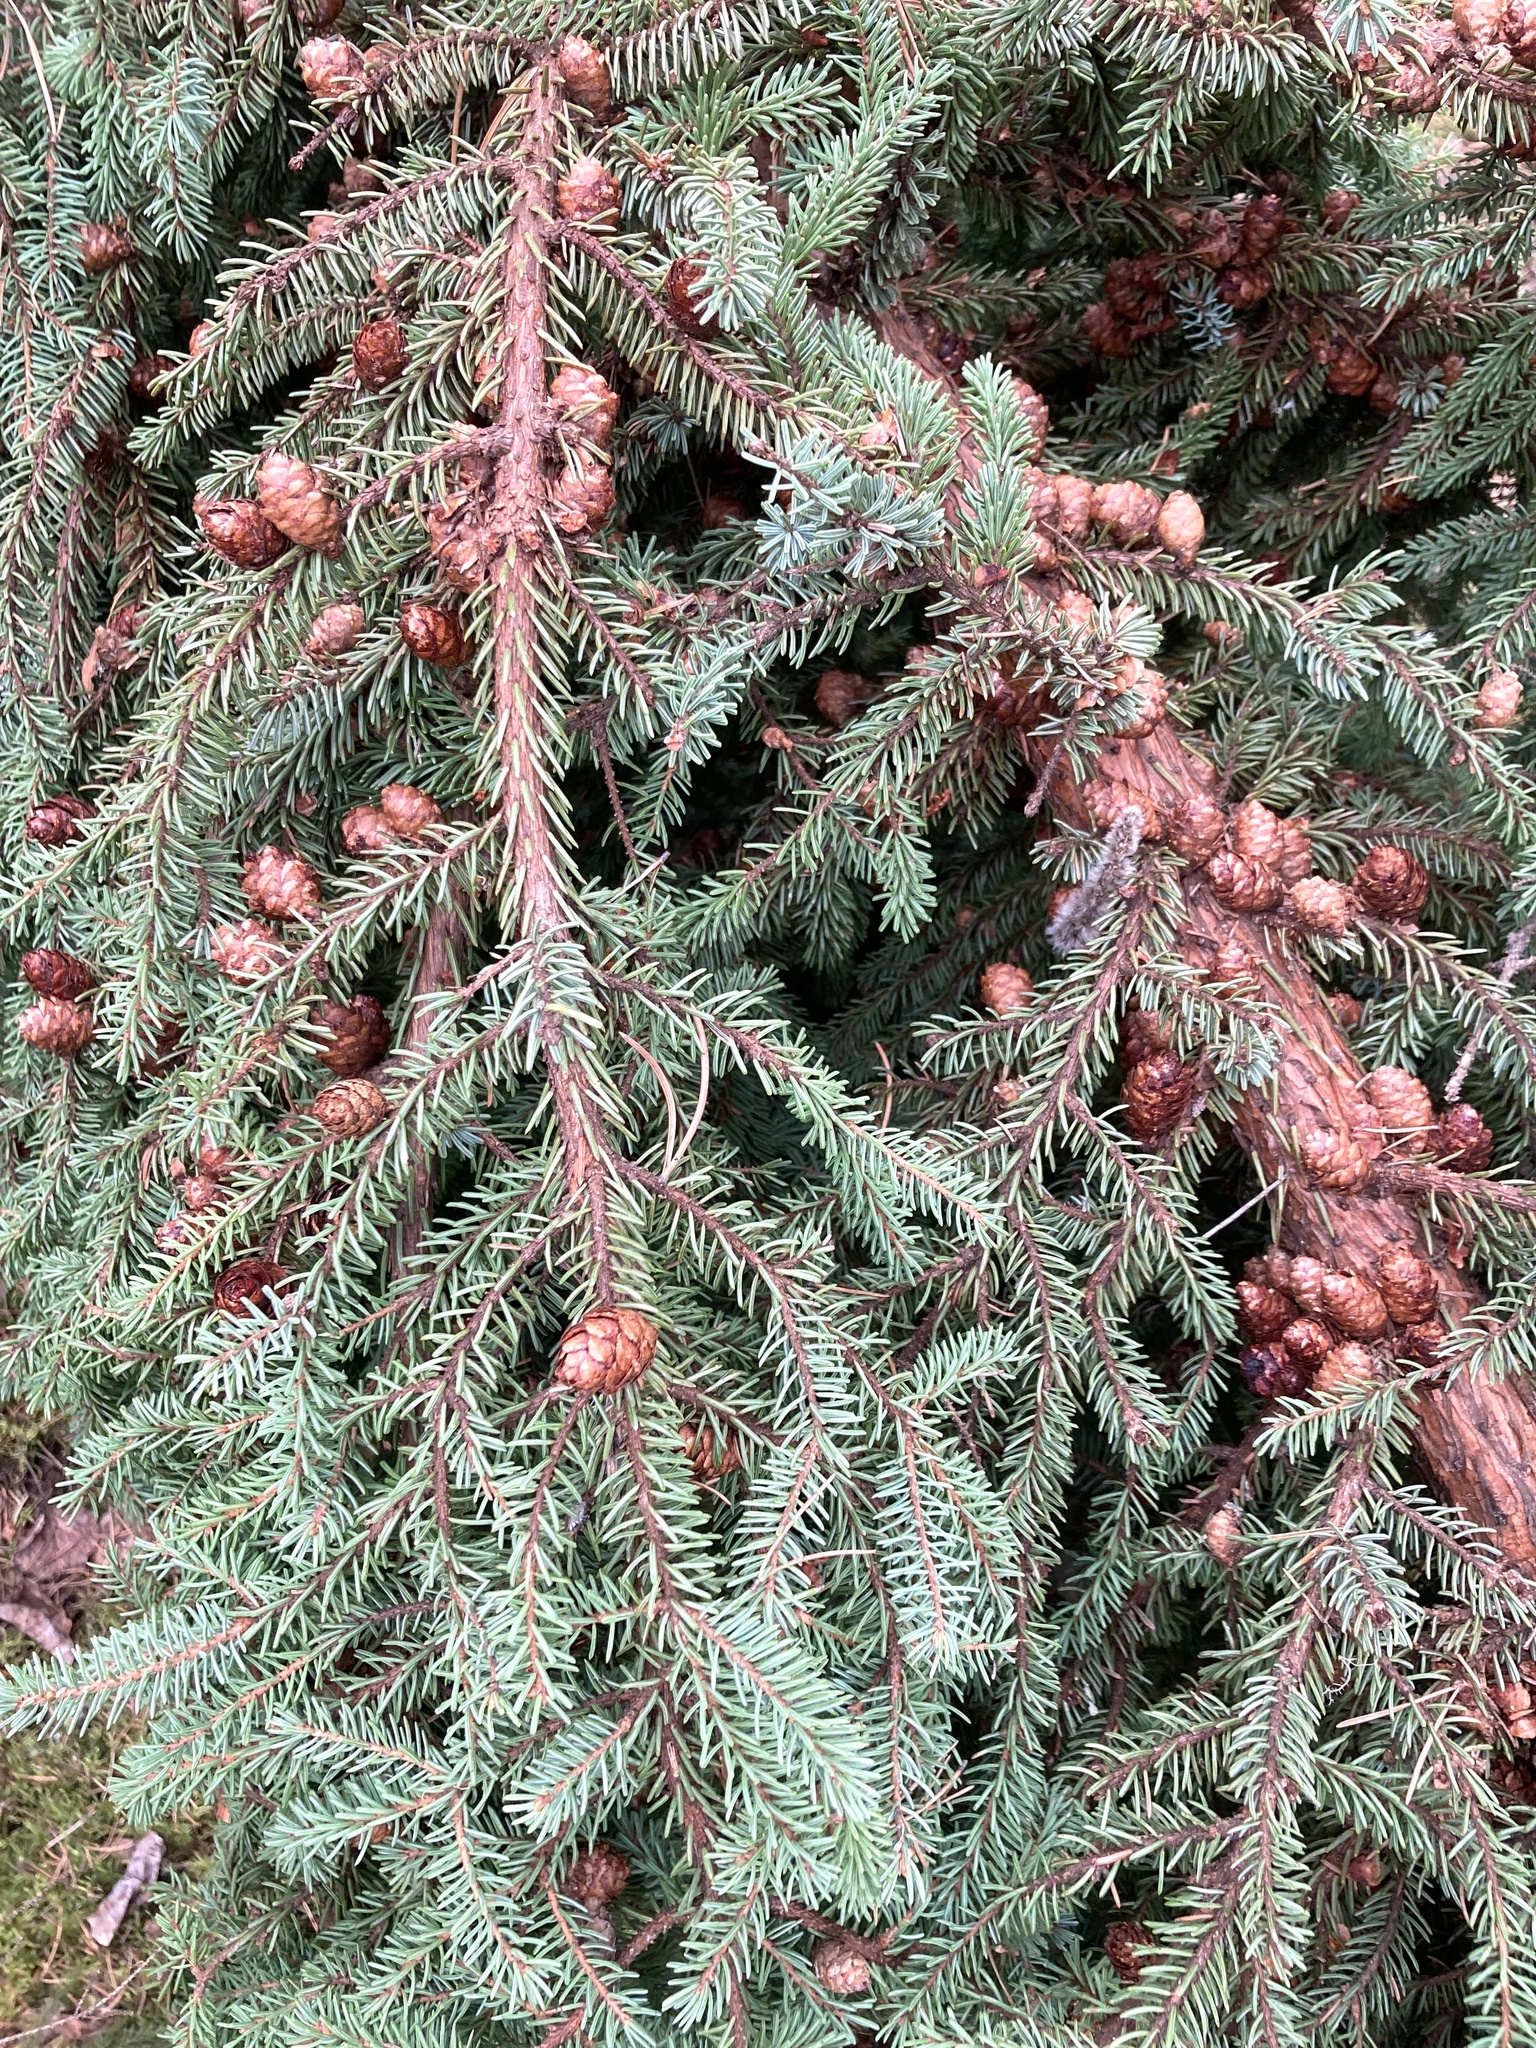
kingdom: Plantae
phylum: Tracheophyta
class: Pinopsida
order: Pinales
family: Pinaceae
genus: Picea
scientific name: Picea mariana
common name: Black spruce
